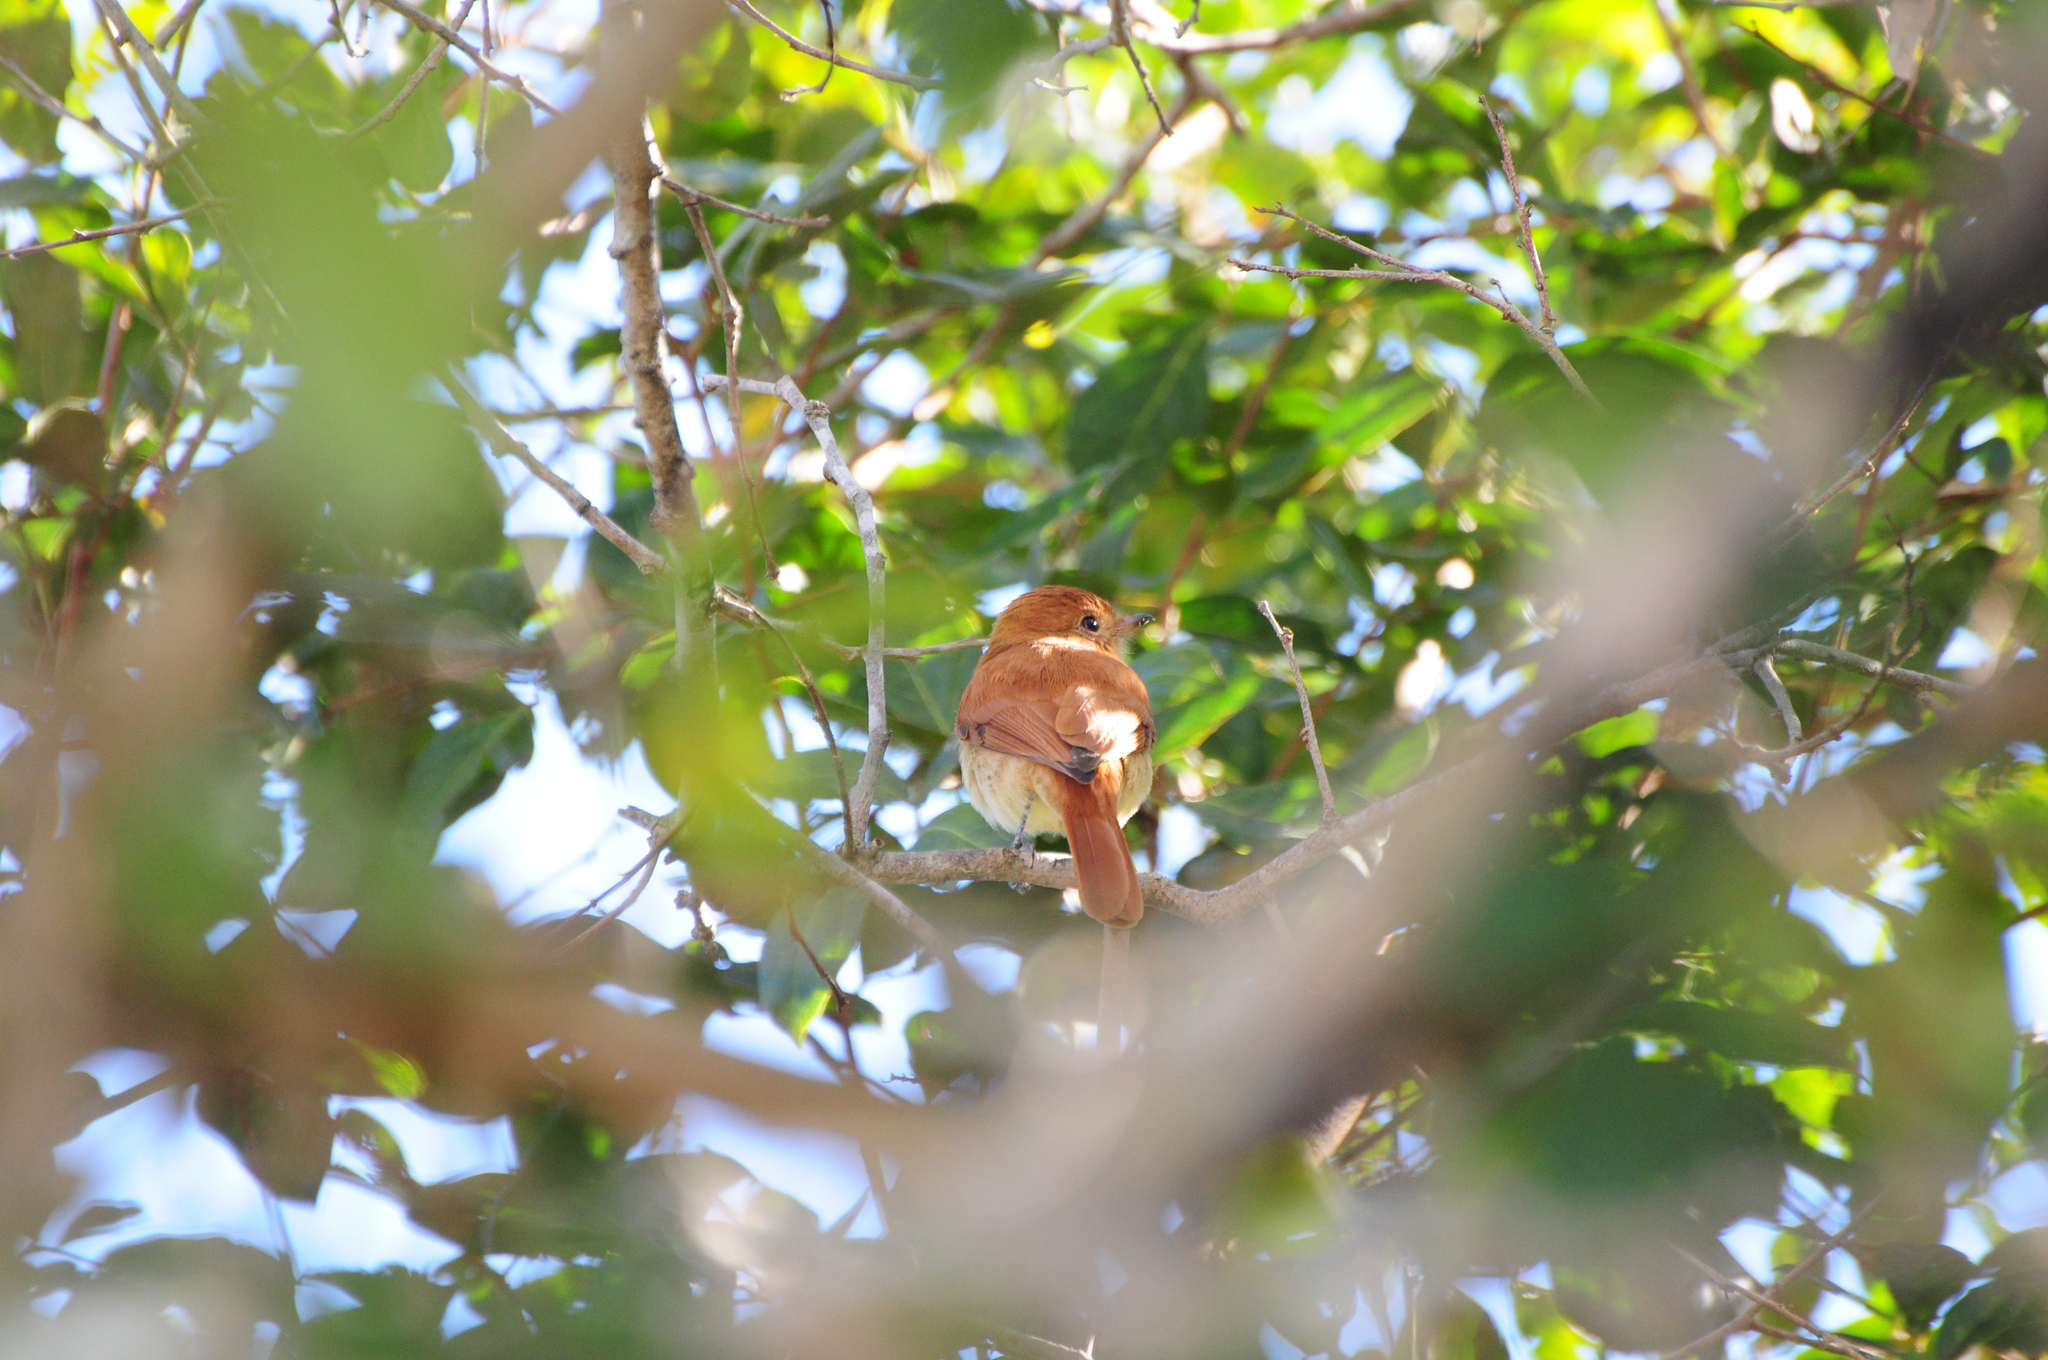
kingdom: Animalia
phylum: Chordata
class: Aves
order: Passeriformes
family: Tyrannidae
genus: Casiornis
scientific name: Casiornis rufus
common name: Rufous casiornis
